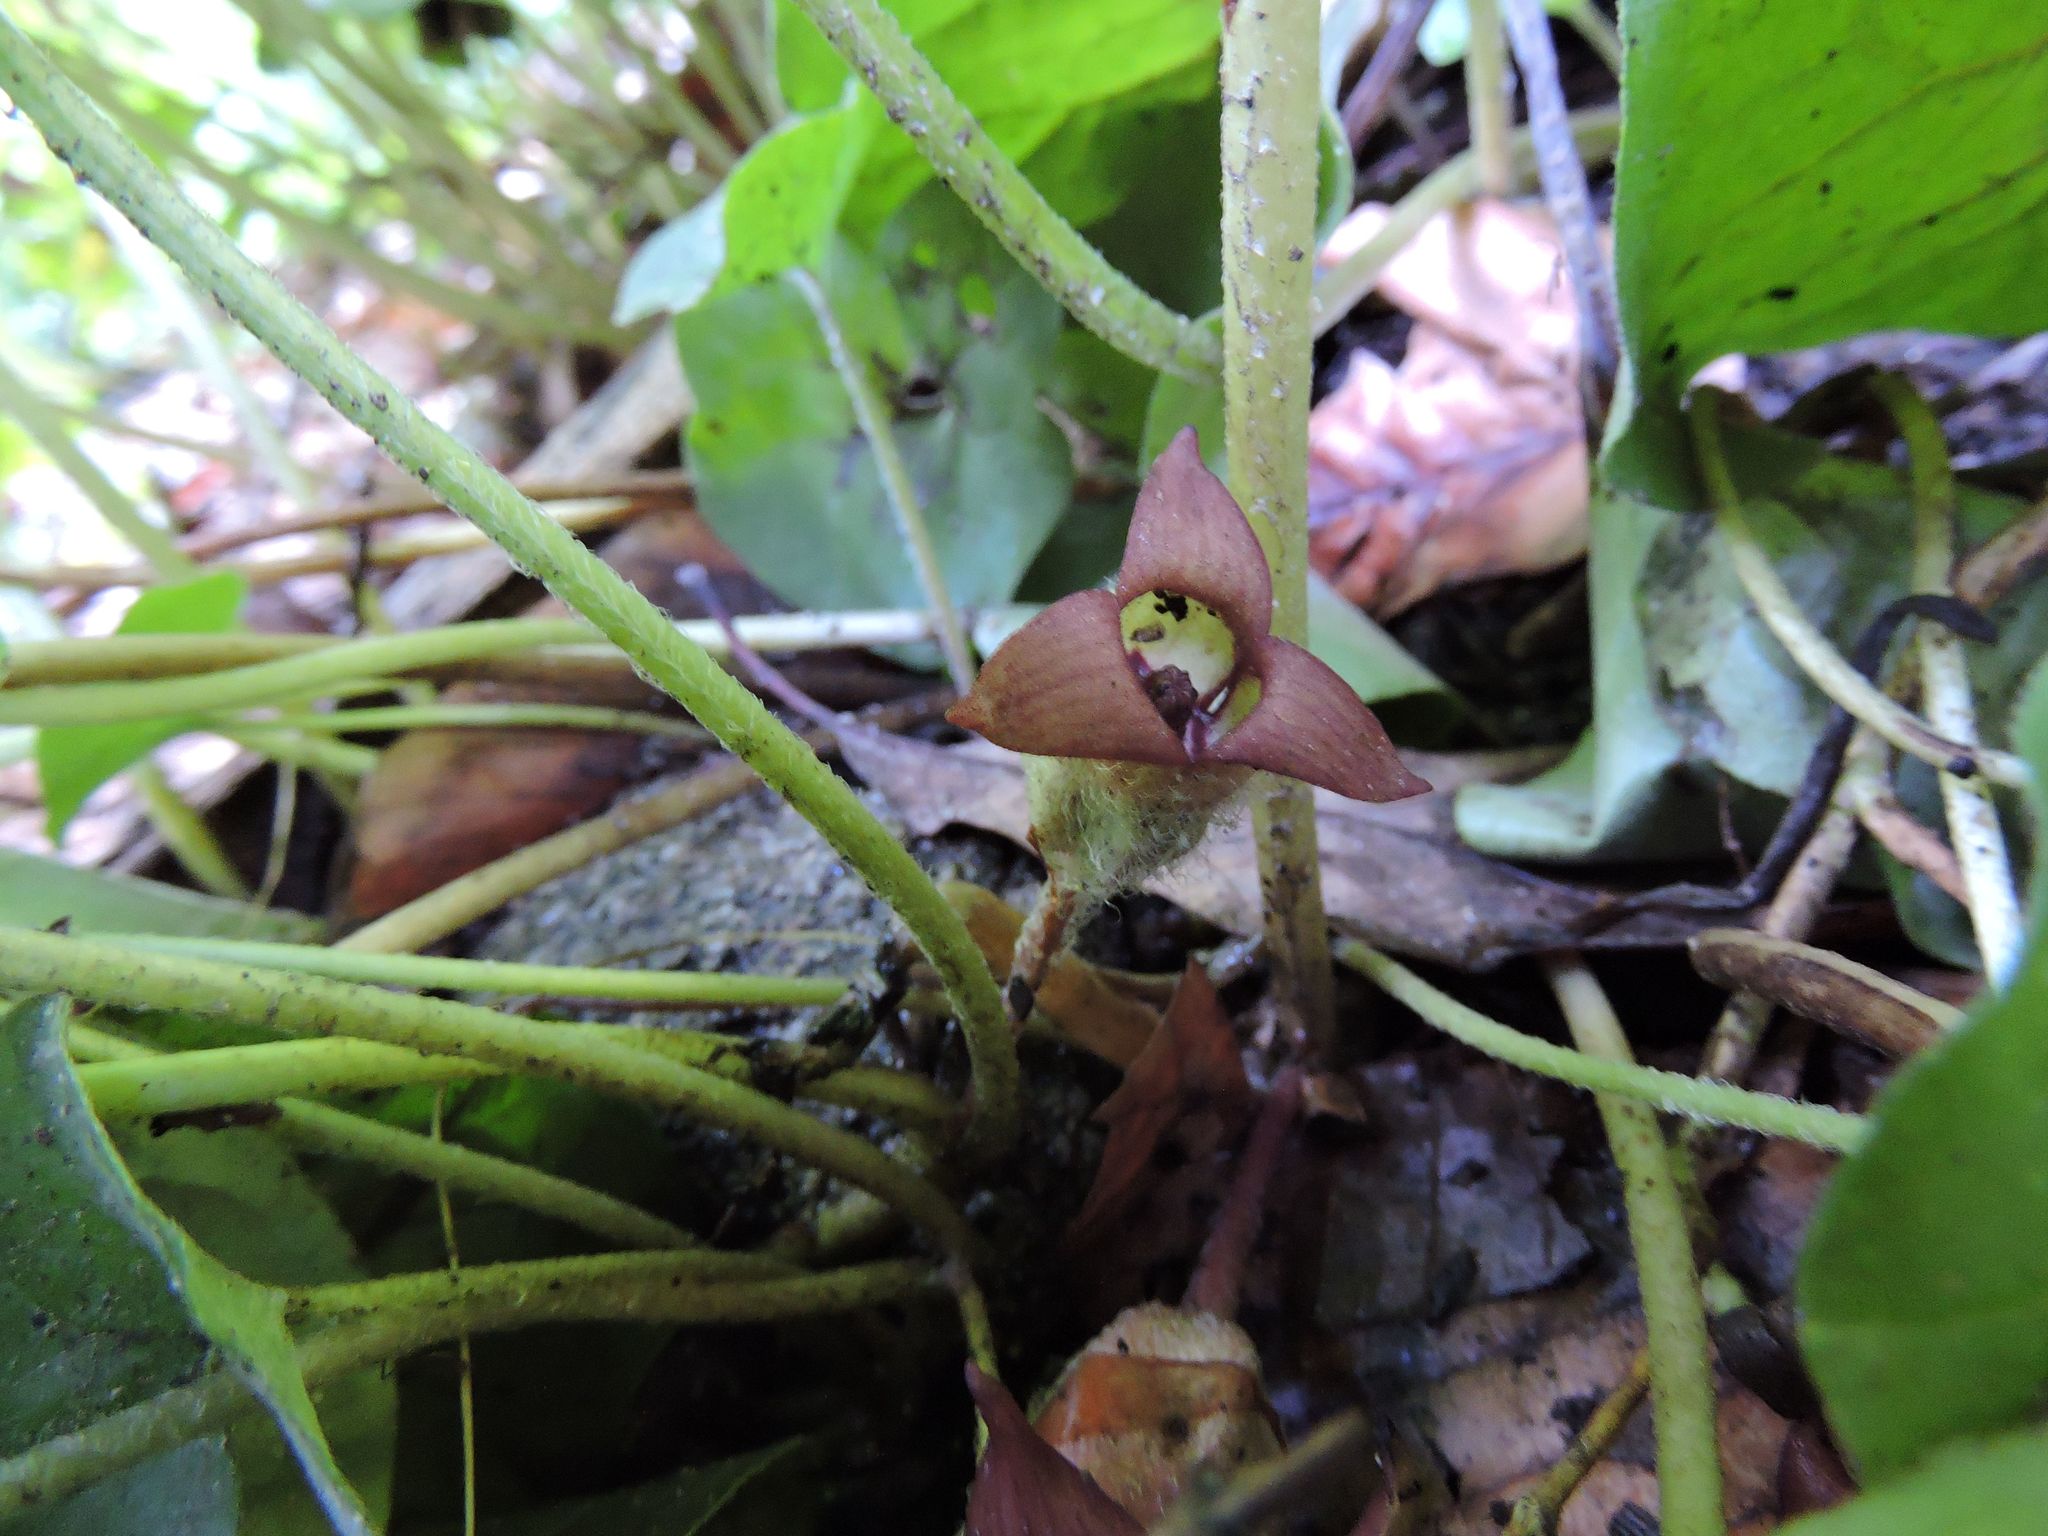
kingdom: Plantae
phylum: Tracheophyta
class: Magnoliopsida
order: Piperales
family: Aristolochiaceae
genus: Asarum
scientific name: Asarum canadense
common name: Wild ginger
